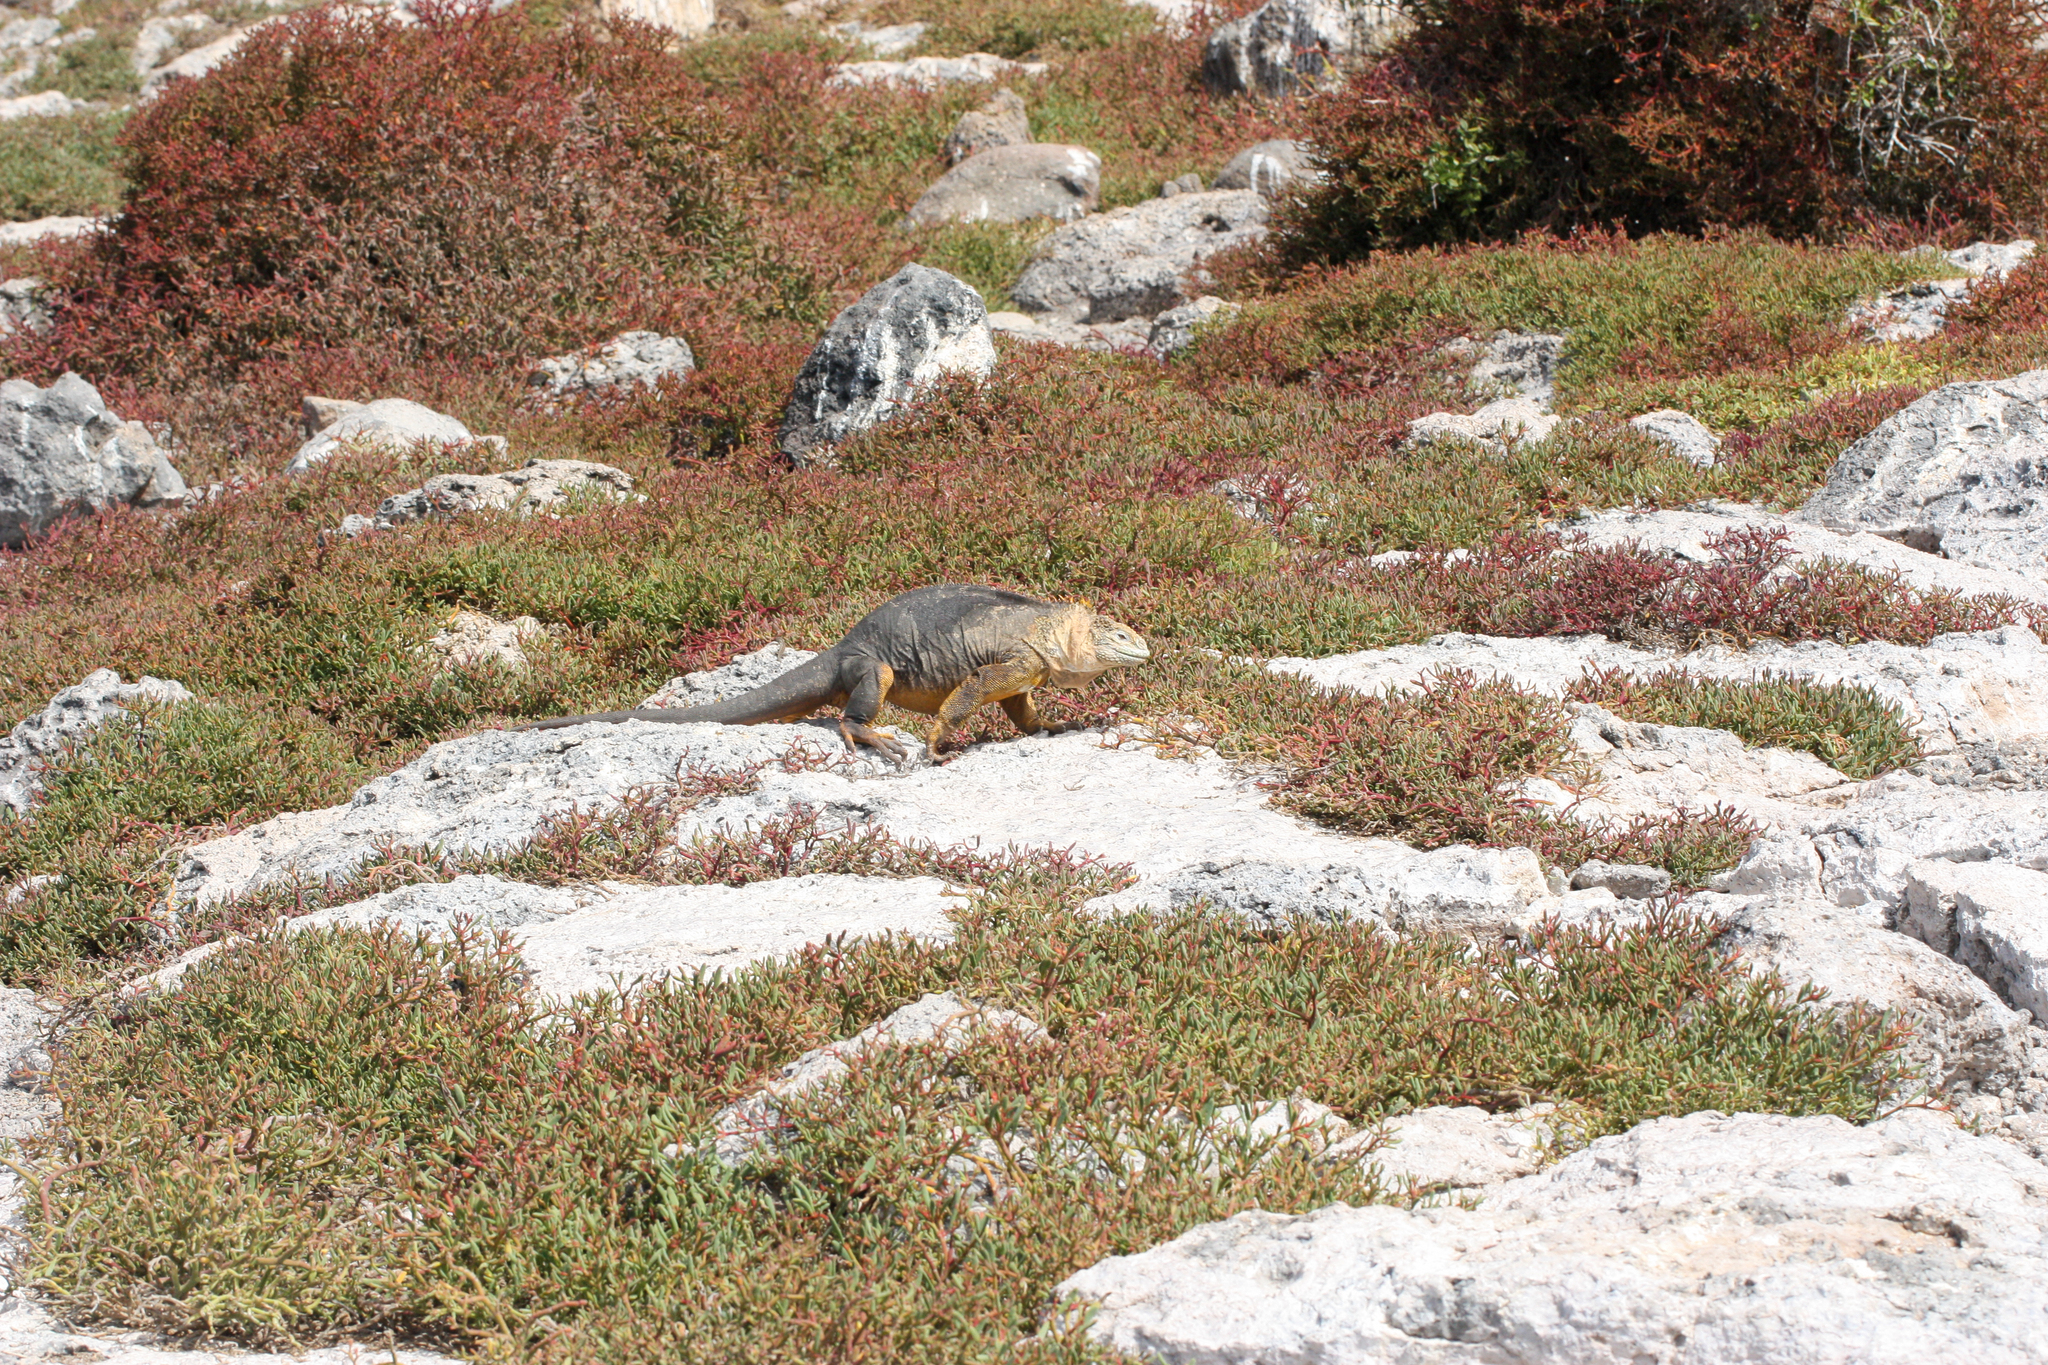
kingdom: Animalia
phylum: Chordata
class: Squamata
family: Iguanidae
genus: Conolophus
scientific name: Conolophus subcristatus
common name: Galapagos land iguana
